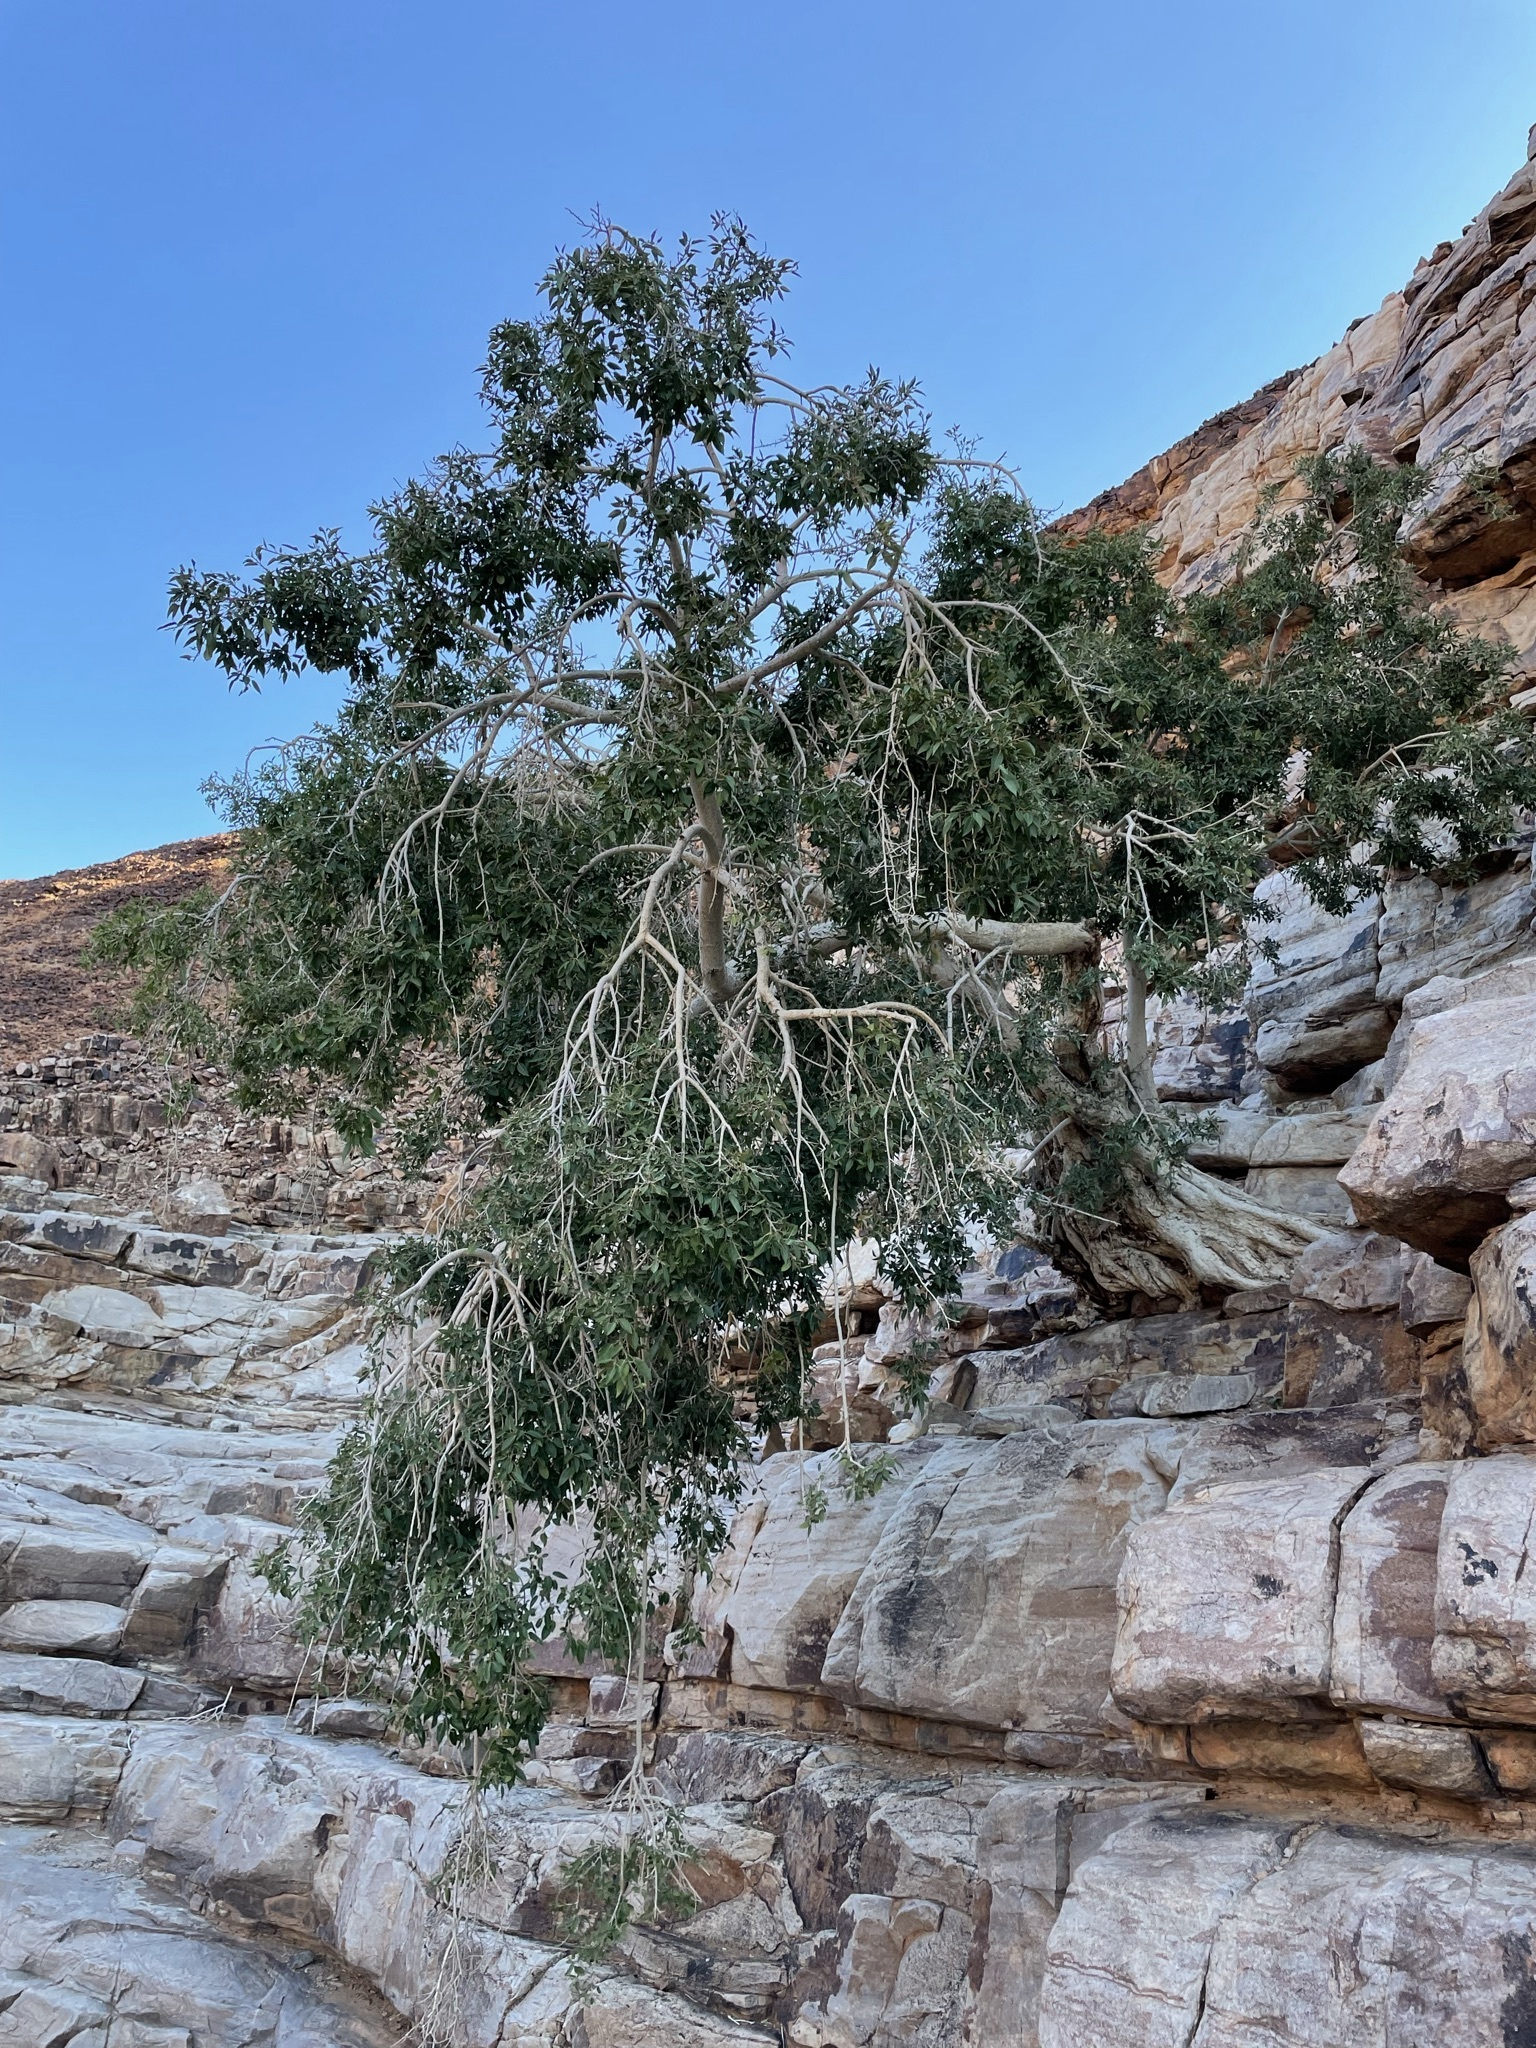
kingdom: Plantae
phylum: Tracheophyta
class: Magnoliopsida
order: Rosales
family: Moraceae
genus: Ficus
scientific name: Ficus cordata
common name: Namaqua rock fig
